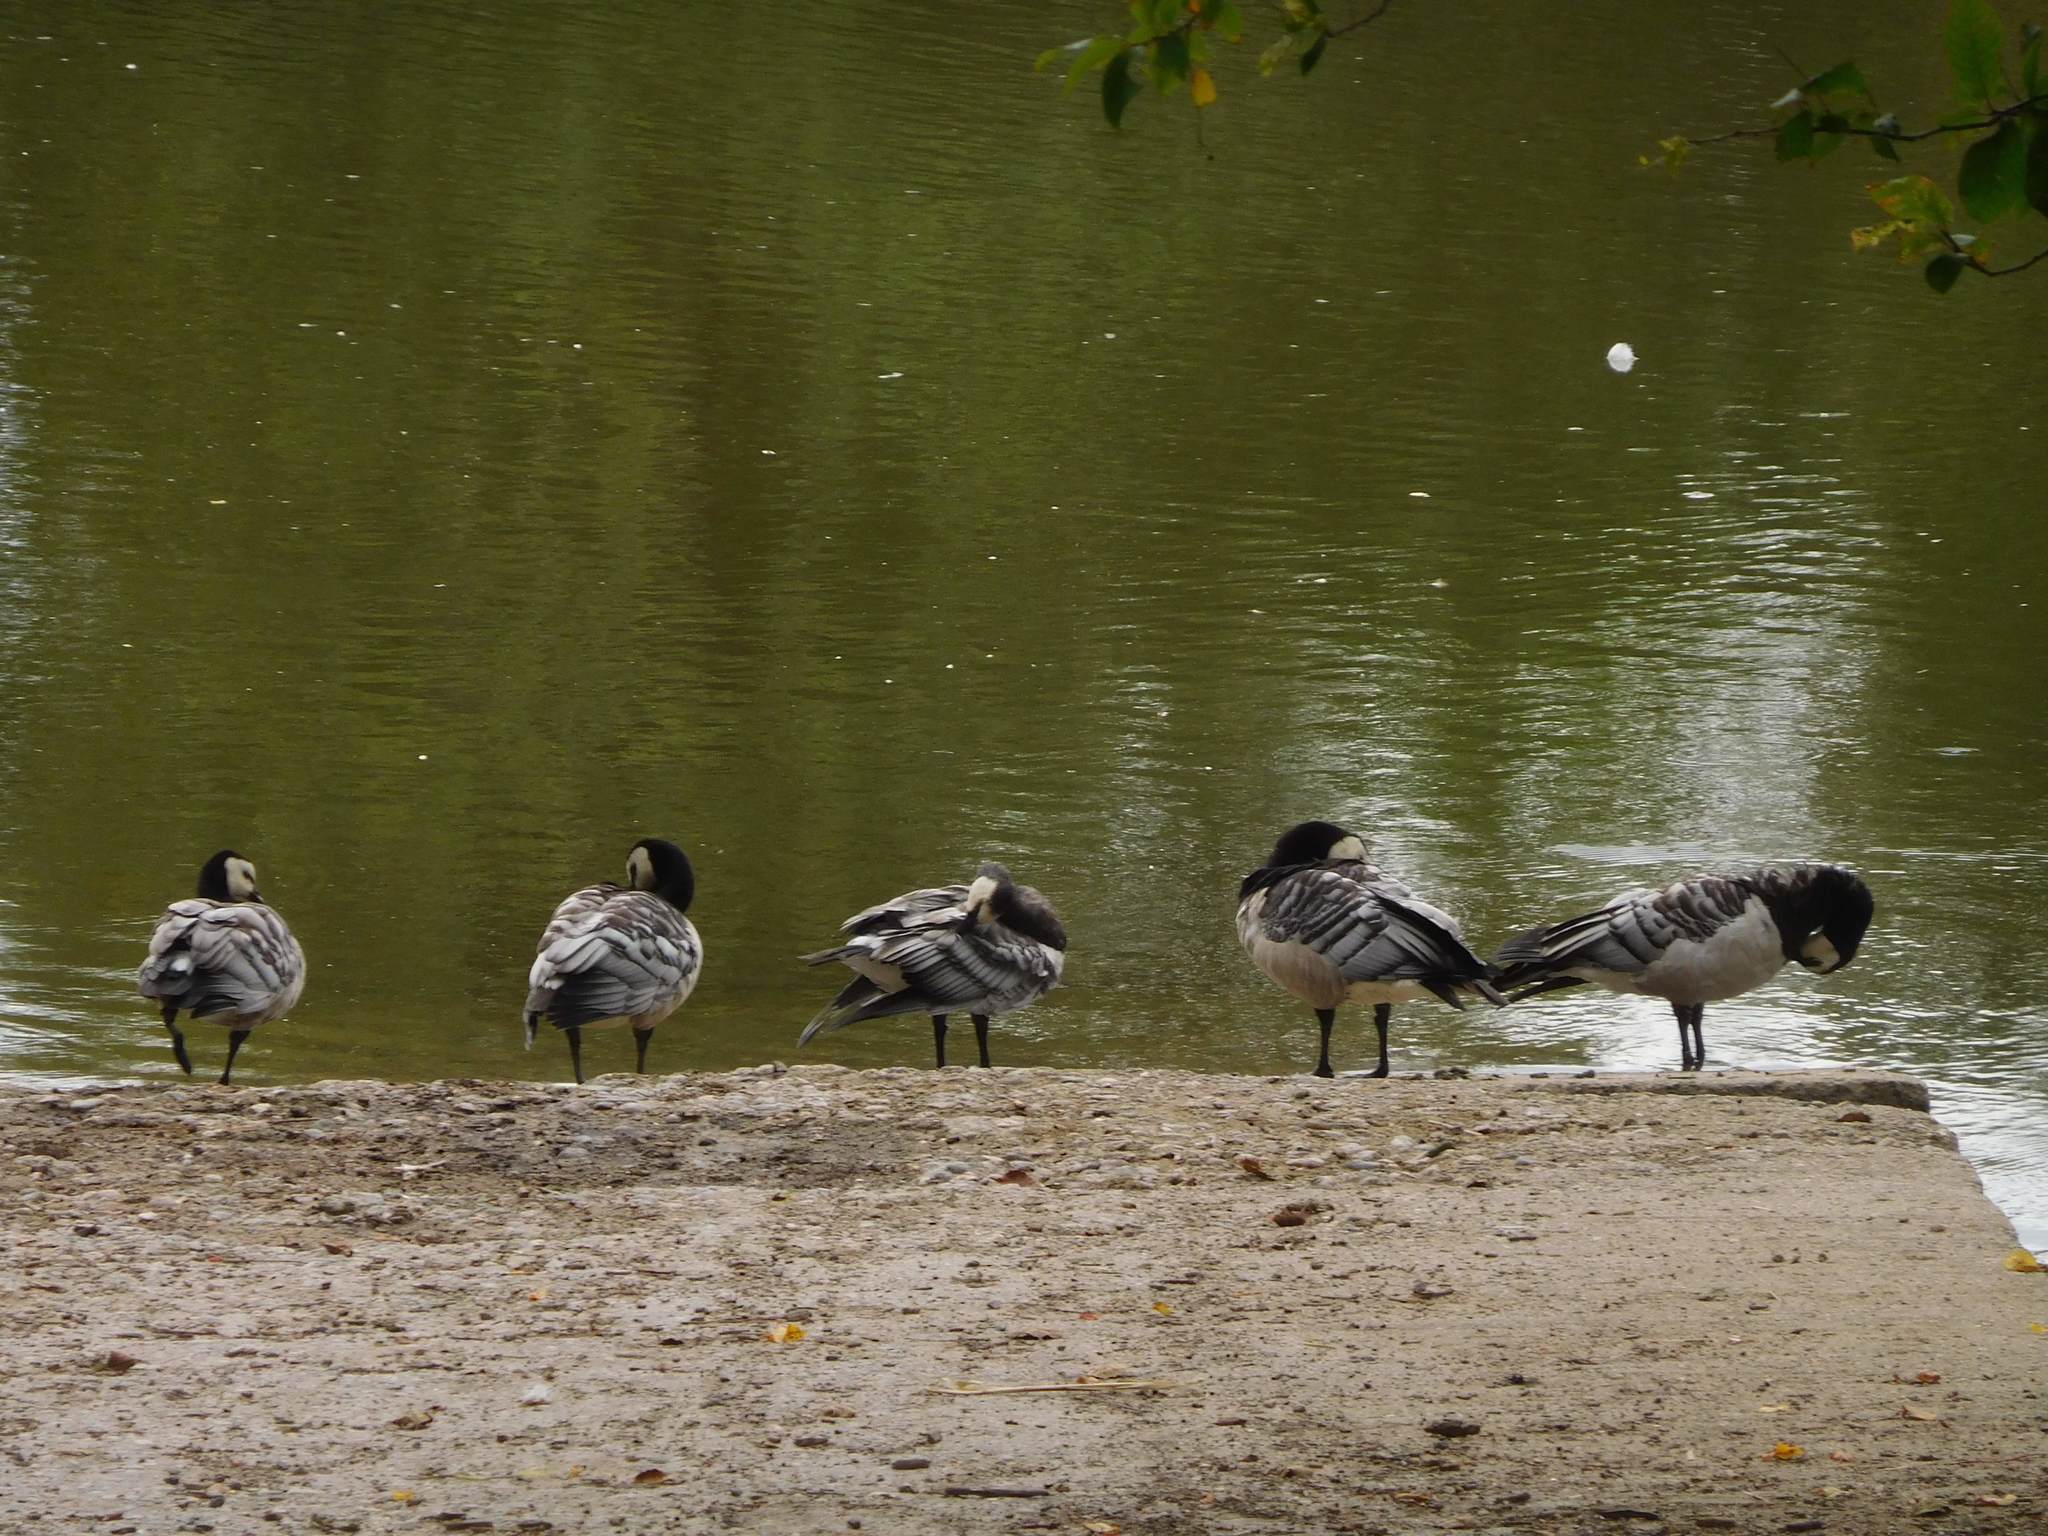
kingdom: Animalia
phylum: Chordata
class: Aves
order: Anseriformes
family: Anatidae
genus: Branta
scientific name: Branta leucopsis
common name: Barnacle goose
